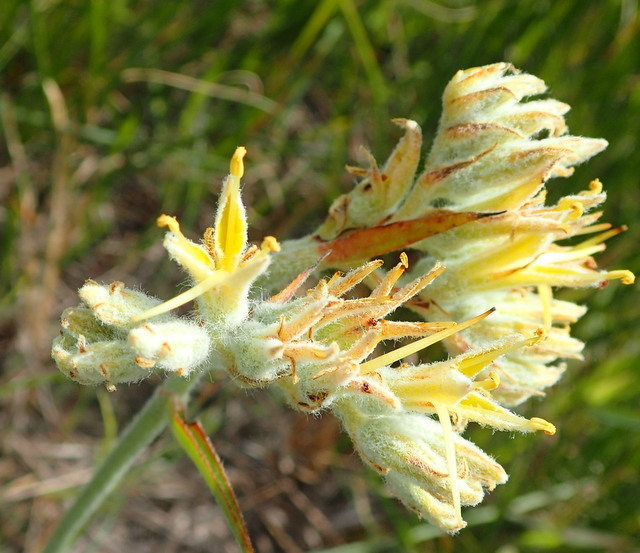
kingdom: Plantae
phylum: Tracheophyta
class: Liliopsida
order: Commelinales
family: Haemodoraceae
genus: Lachnanthes
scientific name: Lachnanthes caroliana
